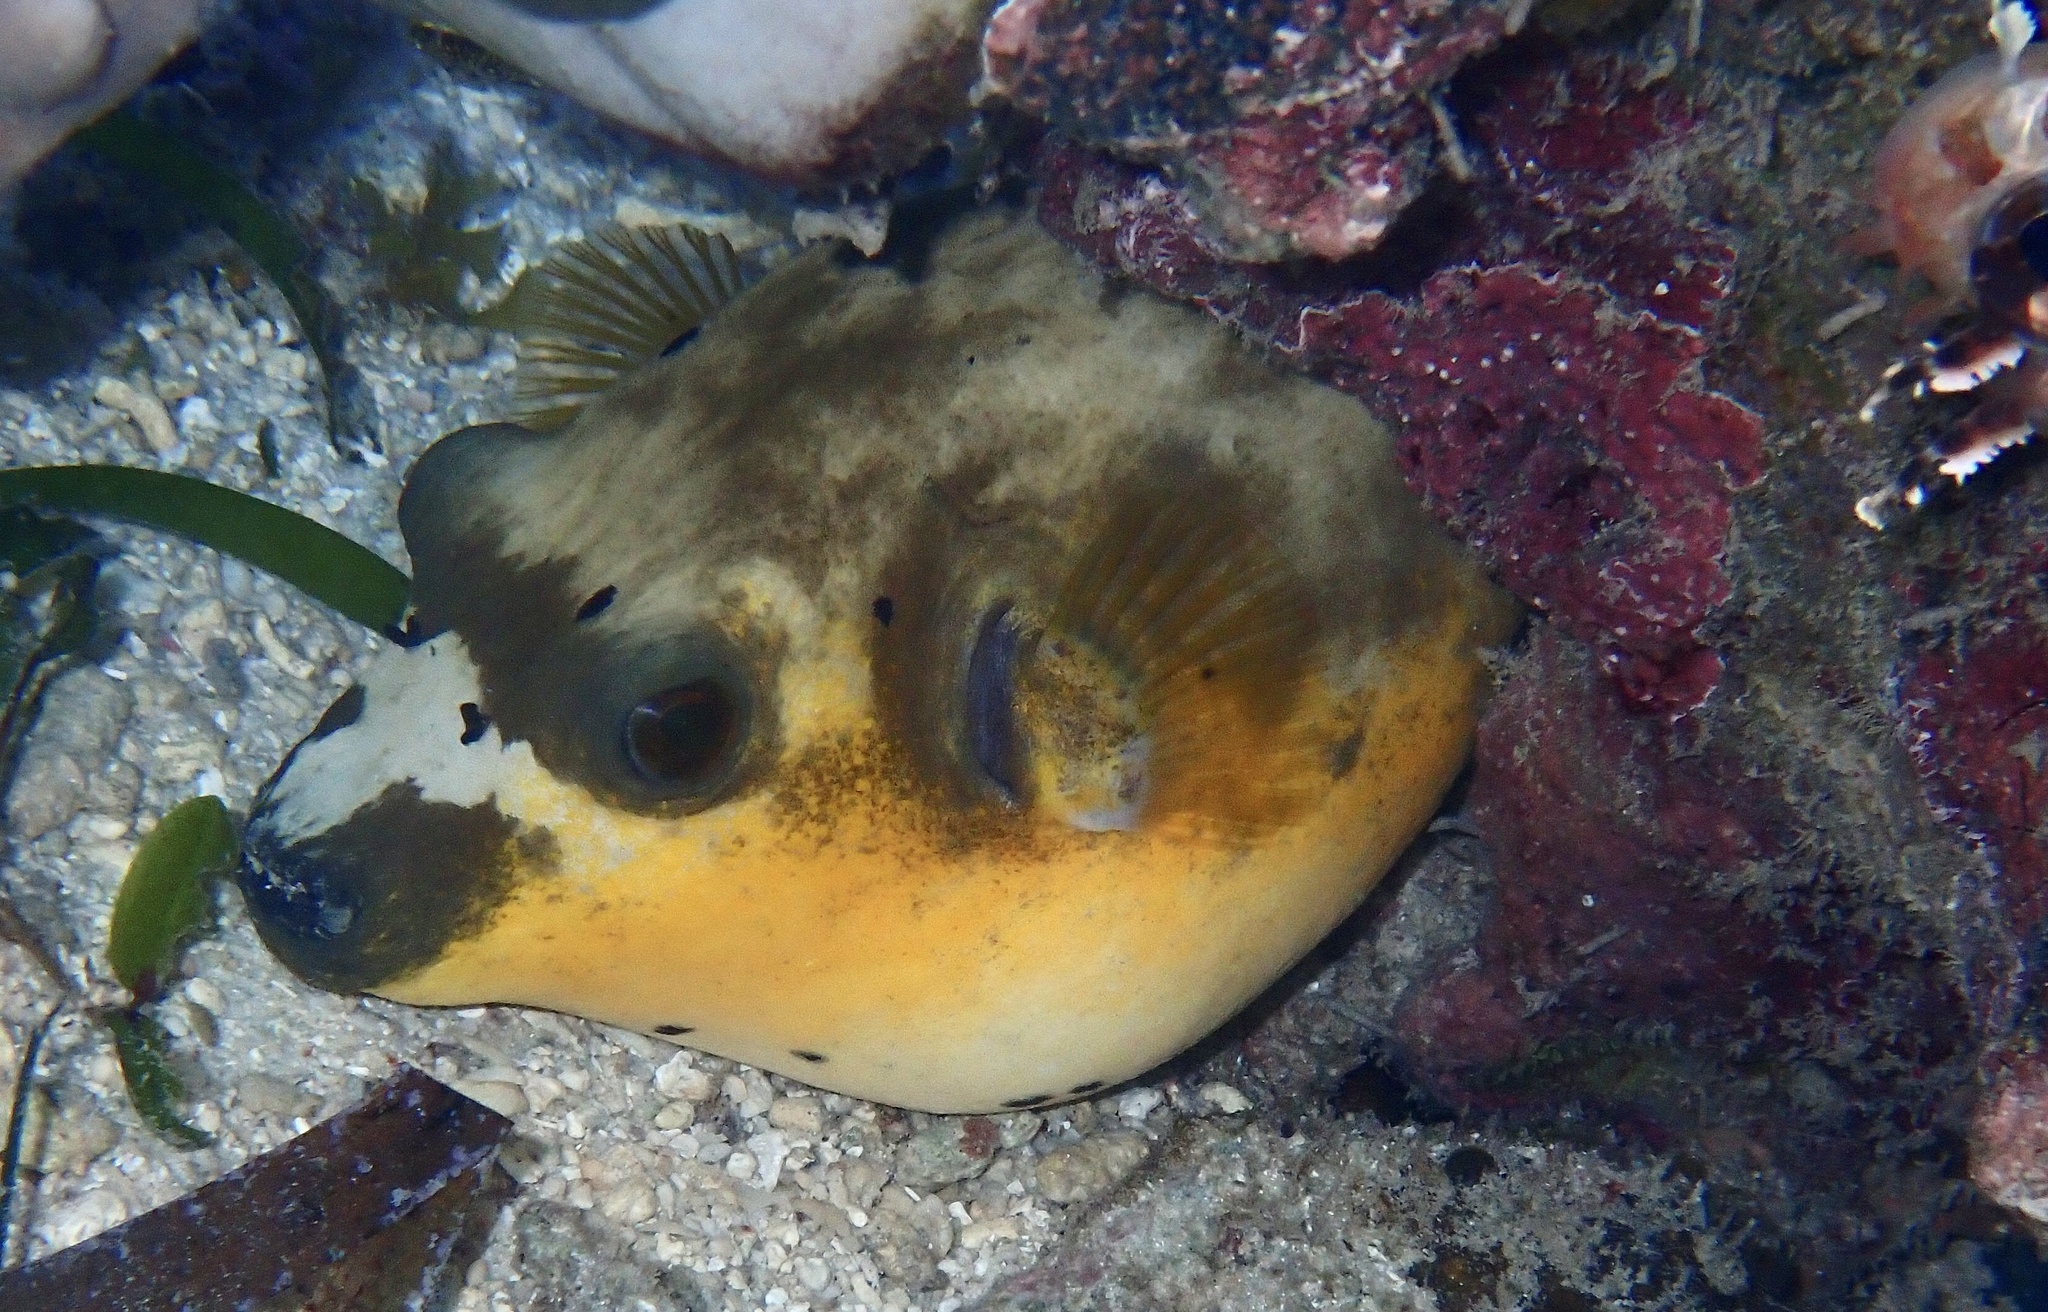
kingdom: Animalia
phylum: Chordata
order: Tetraodontiformes
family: Tetraodontidae
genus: Arothron
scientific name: Arothron nigropunctatus
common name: Black spotted blow fish
